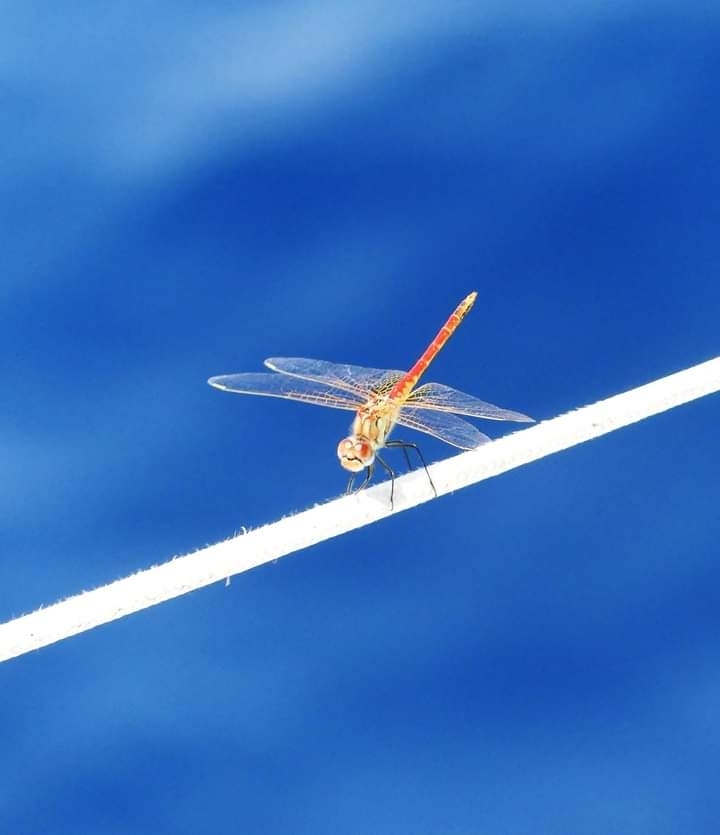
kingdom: Animalia
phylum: Arthropoda
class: Insecta
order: Odonata
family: Libellulidae
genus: Sympetrum
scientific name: Sympetrum fonscolombii
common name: Red-veined darter
